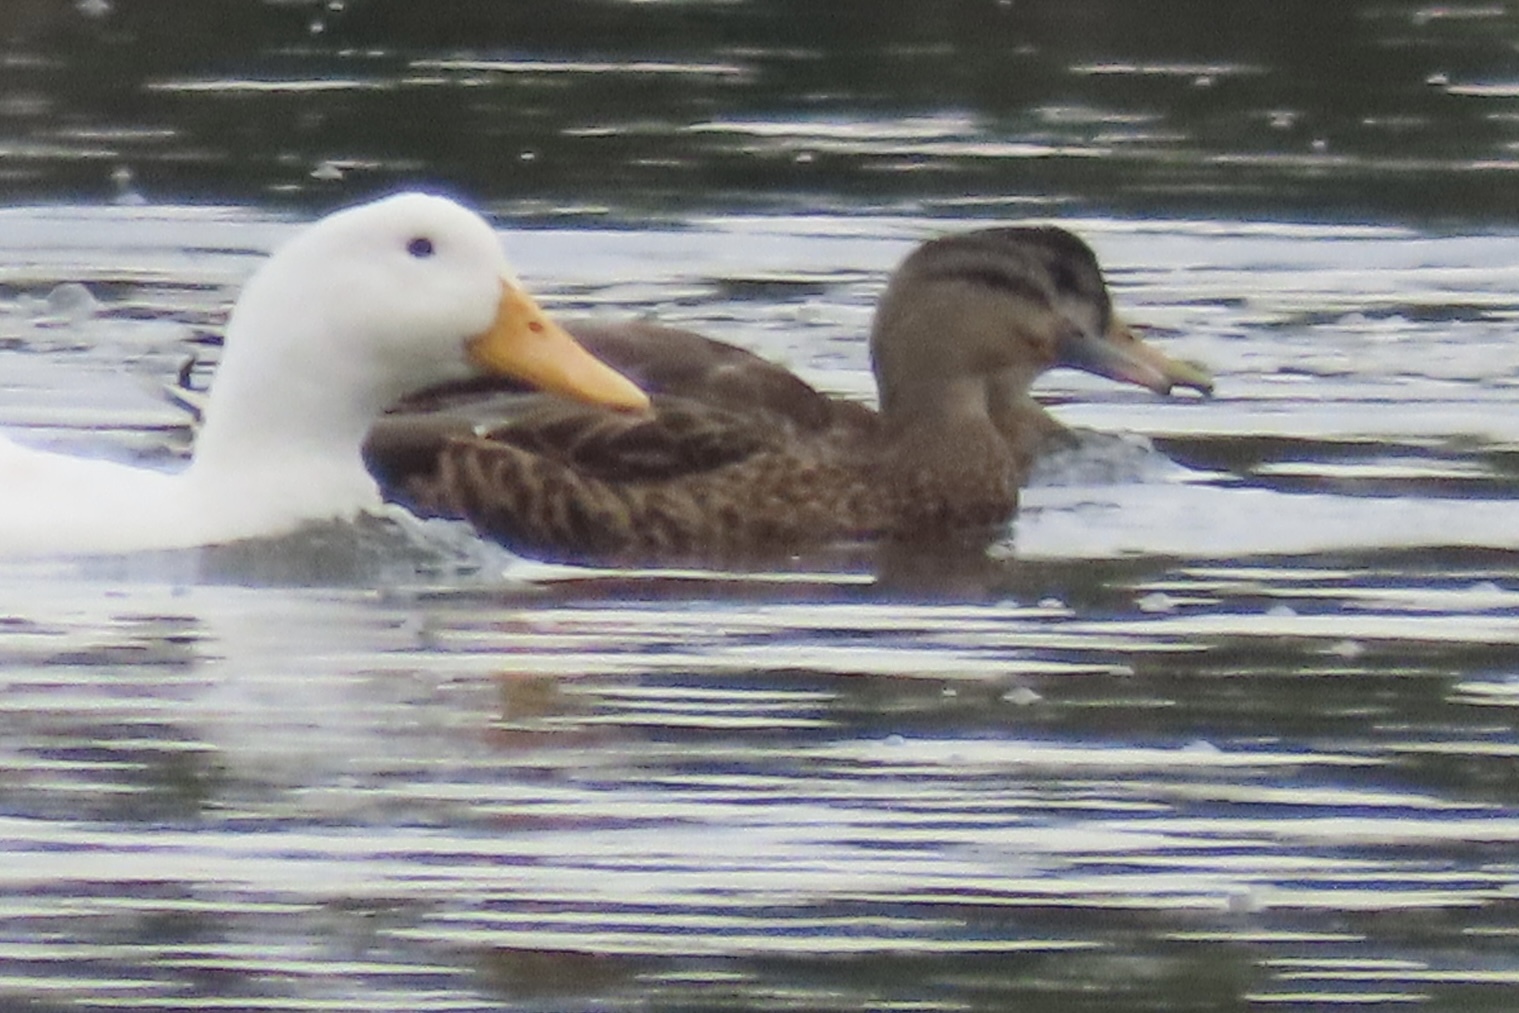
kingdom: Animalia
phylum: Chordata
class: Aves
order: Anseriformes
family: Anatidae
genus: Anas
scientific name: Anas platyrhynchos
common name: Mallard
